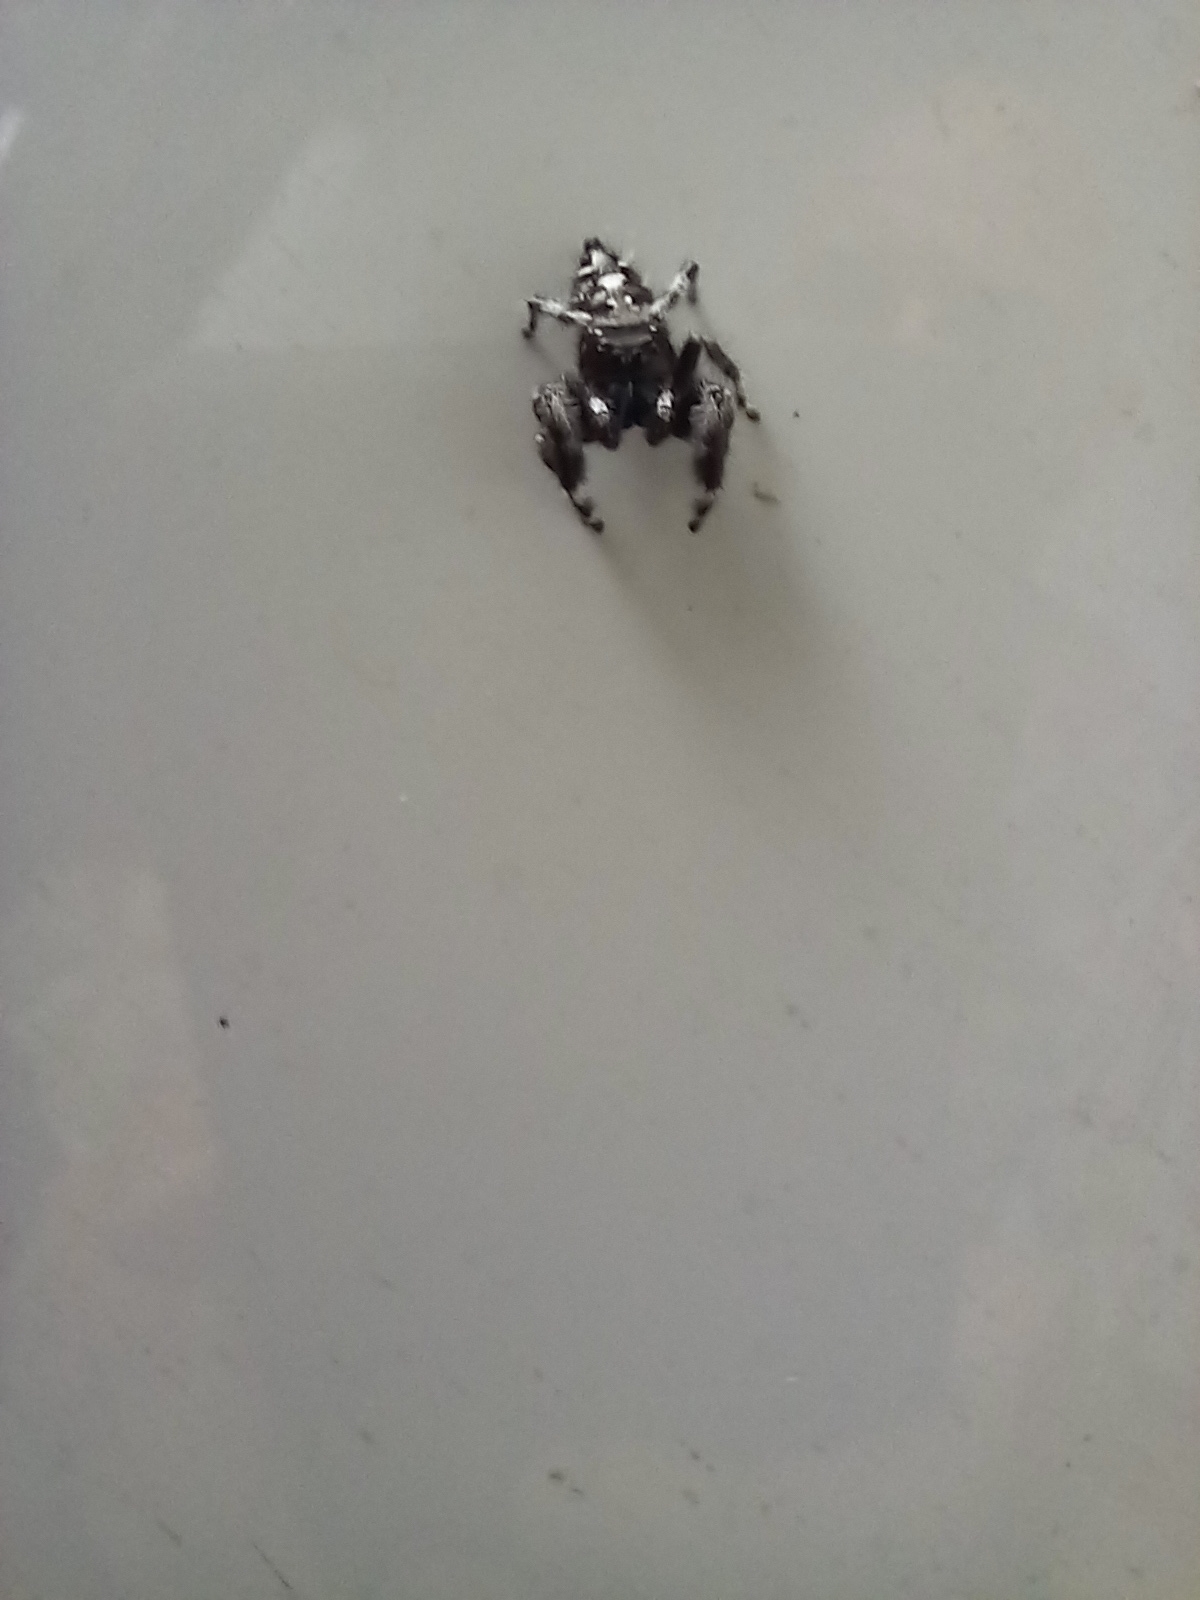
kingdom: Animalia
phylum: Arthropoda
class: Arachnida
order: Araneae
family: Salticidae
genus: Phidippus
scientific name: Phidippus audax
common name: Bold jumper
